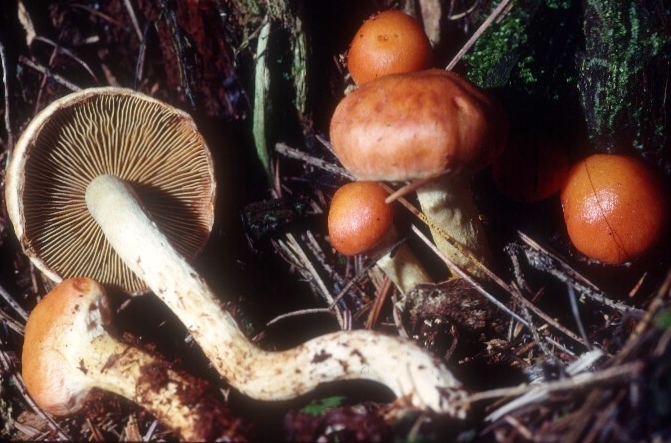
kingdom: Fungi
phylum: Basidiomycota
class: Agaricomycetes
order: Agaricales
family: Strophariaceae
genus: Pyrrhulomyces
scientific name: Pyrrhulomyces astragalinus
